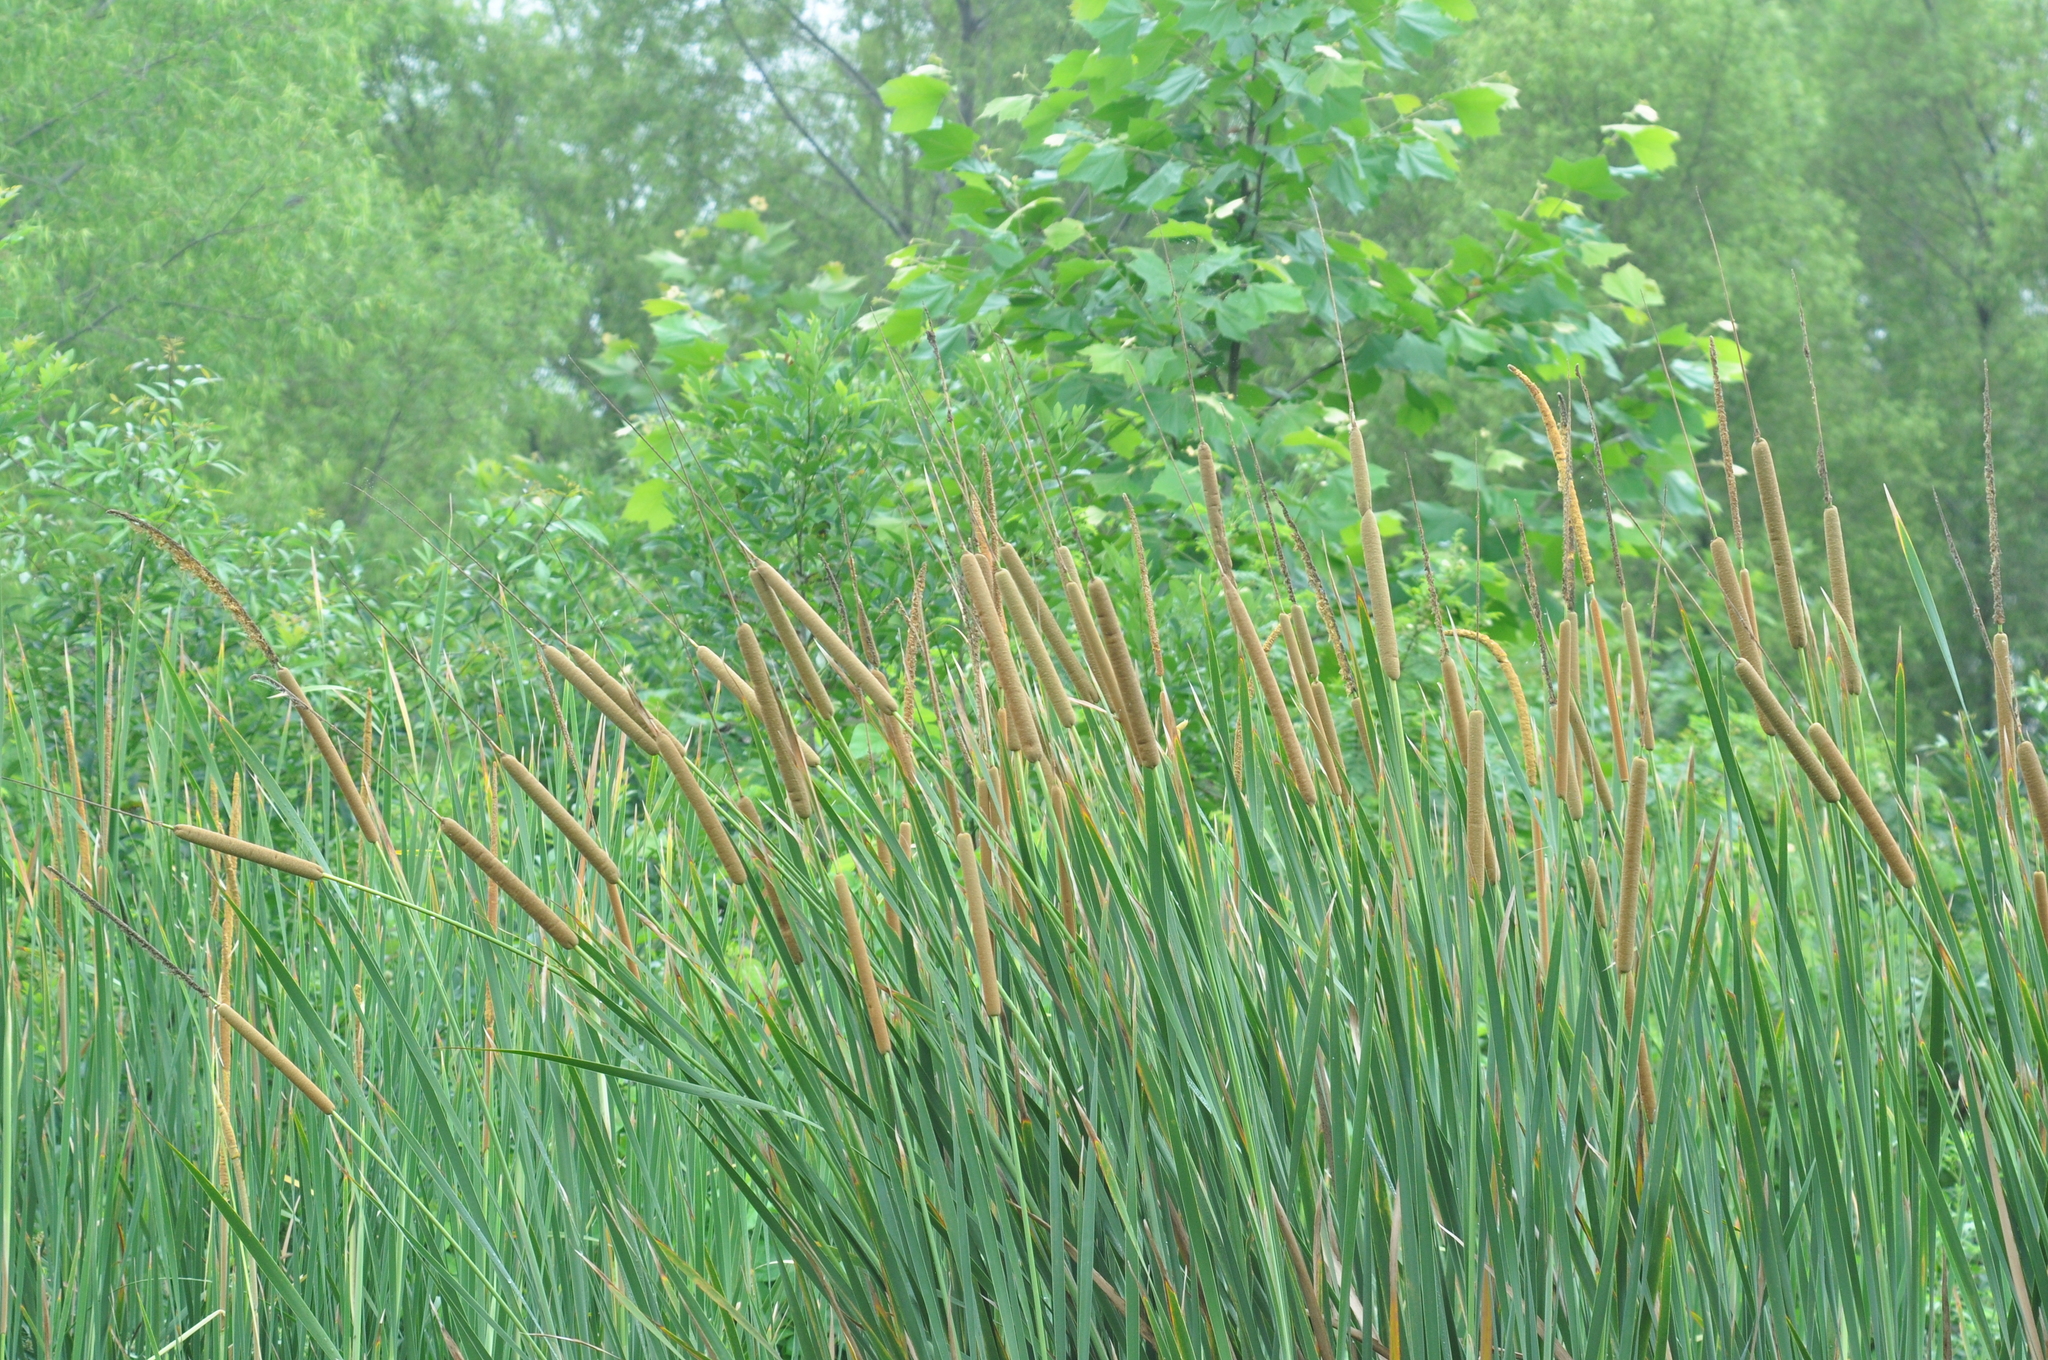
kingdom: Plantae
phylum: Tracheophyta
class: Liliopsida
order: Poales
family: Typhaceae
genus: Typha
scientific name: Typha domingensis
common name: Southern cattail
